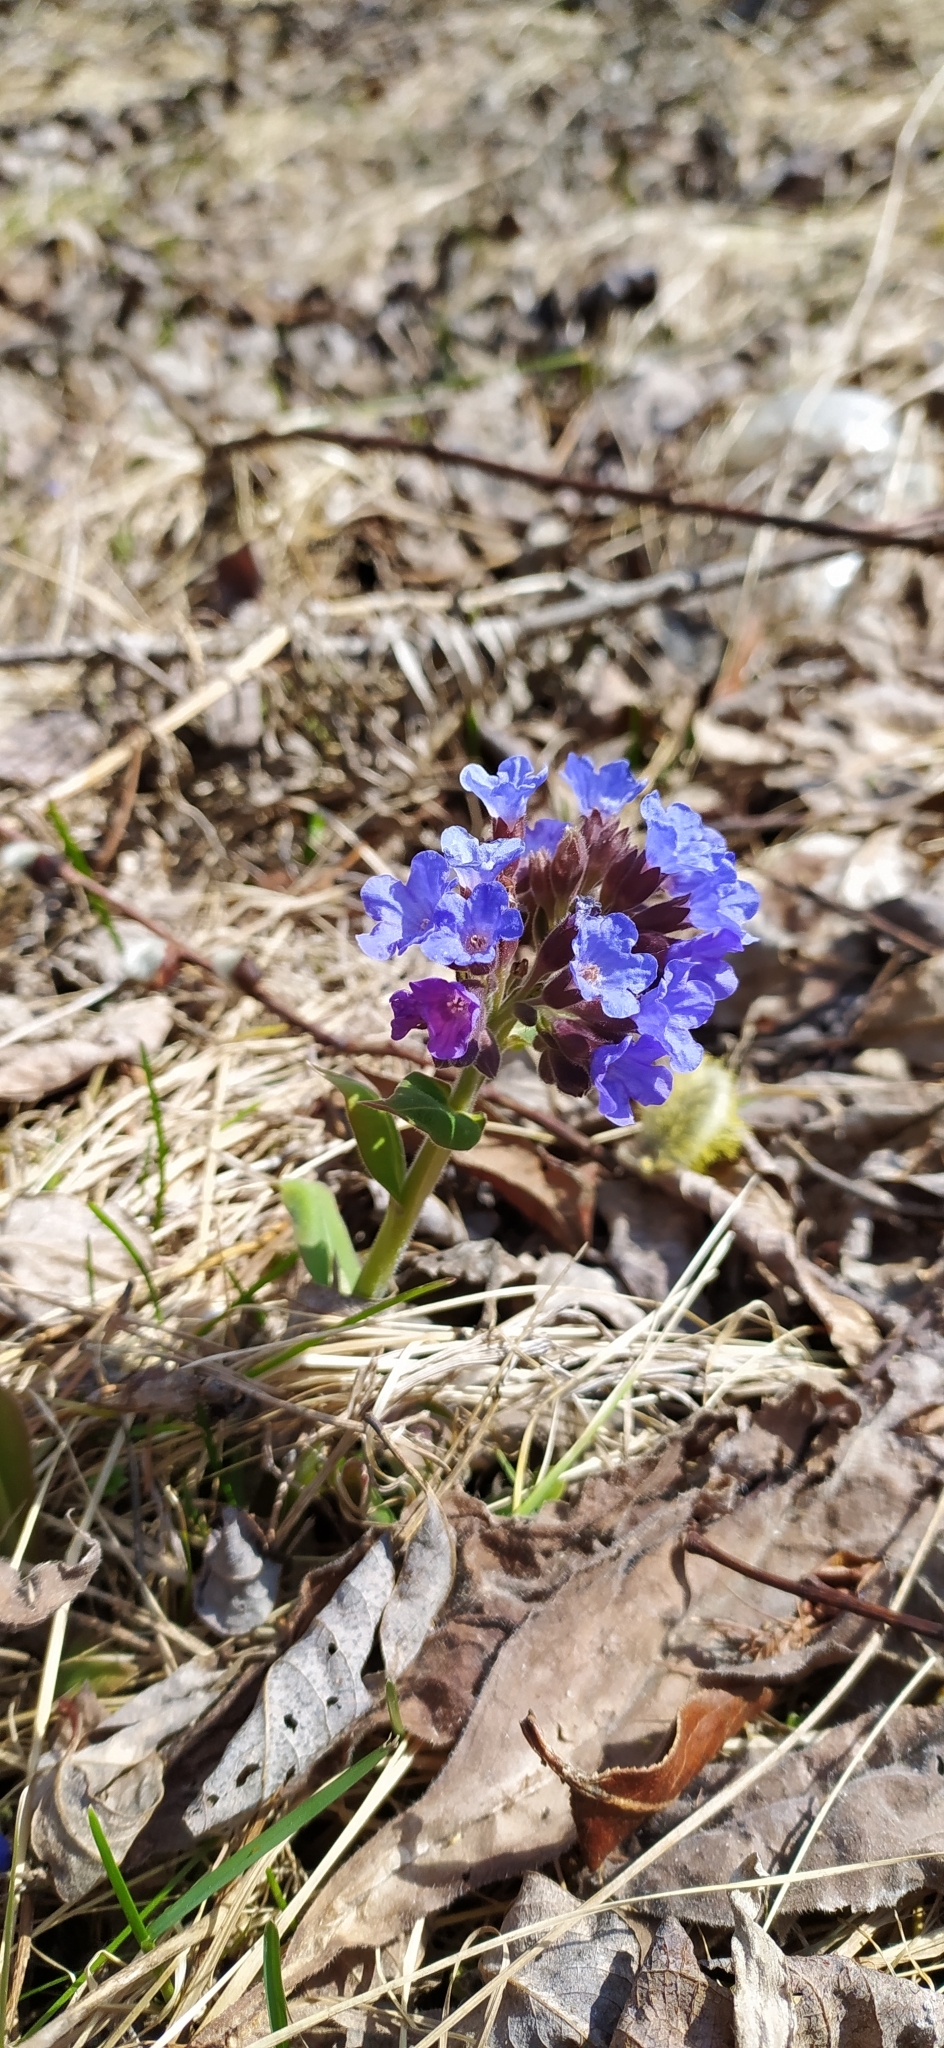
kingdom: Plantae
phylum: Tracheophyta
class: Magnoliopsida
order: Boraginales
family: Boraginaceae
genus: Pulmonaria
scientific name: Pulmonaria mollis
